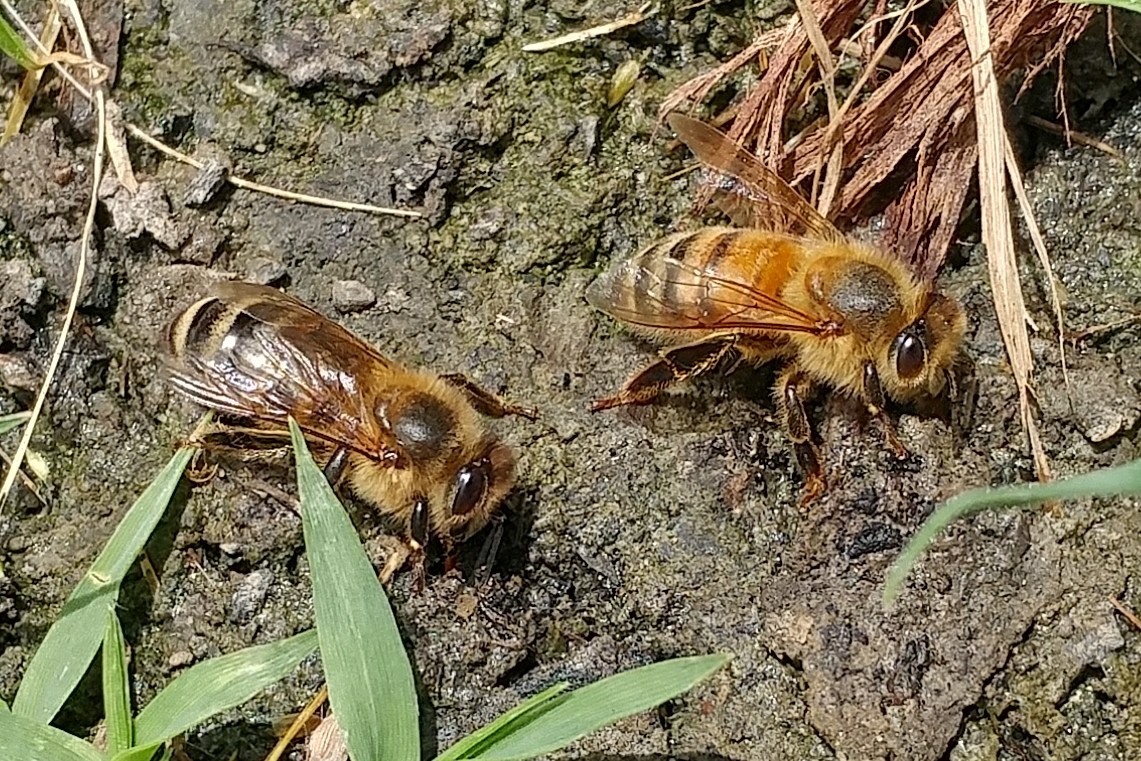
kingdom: Animalia
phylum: Arthropoda
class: Insecta
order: Hymenoptera
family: Apidae
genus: Apis
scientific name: Apis mellifera
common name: Honey bee
